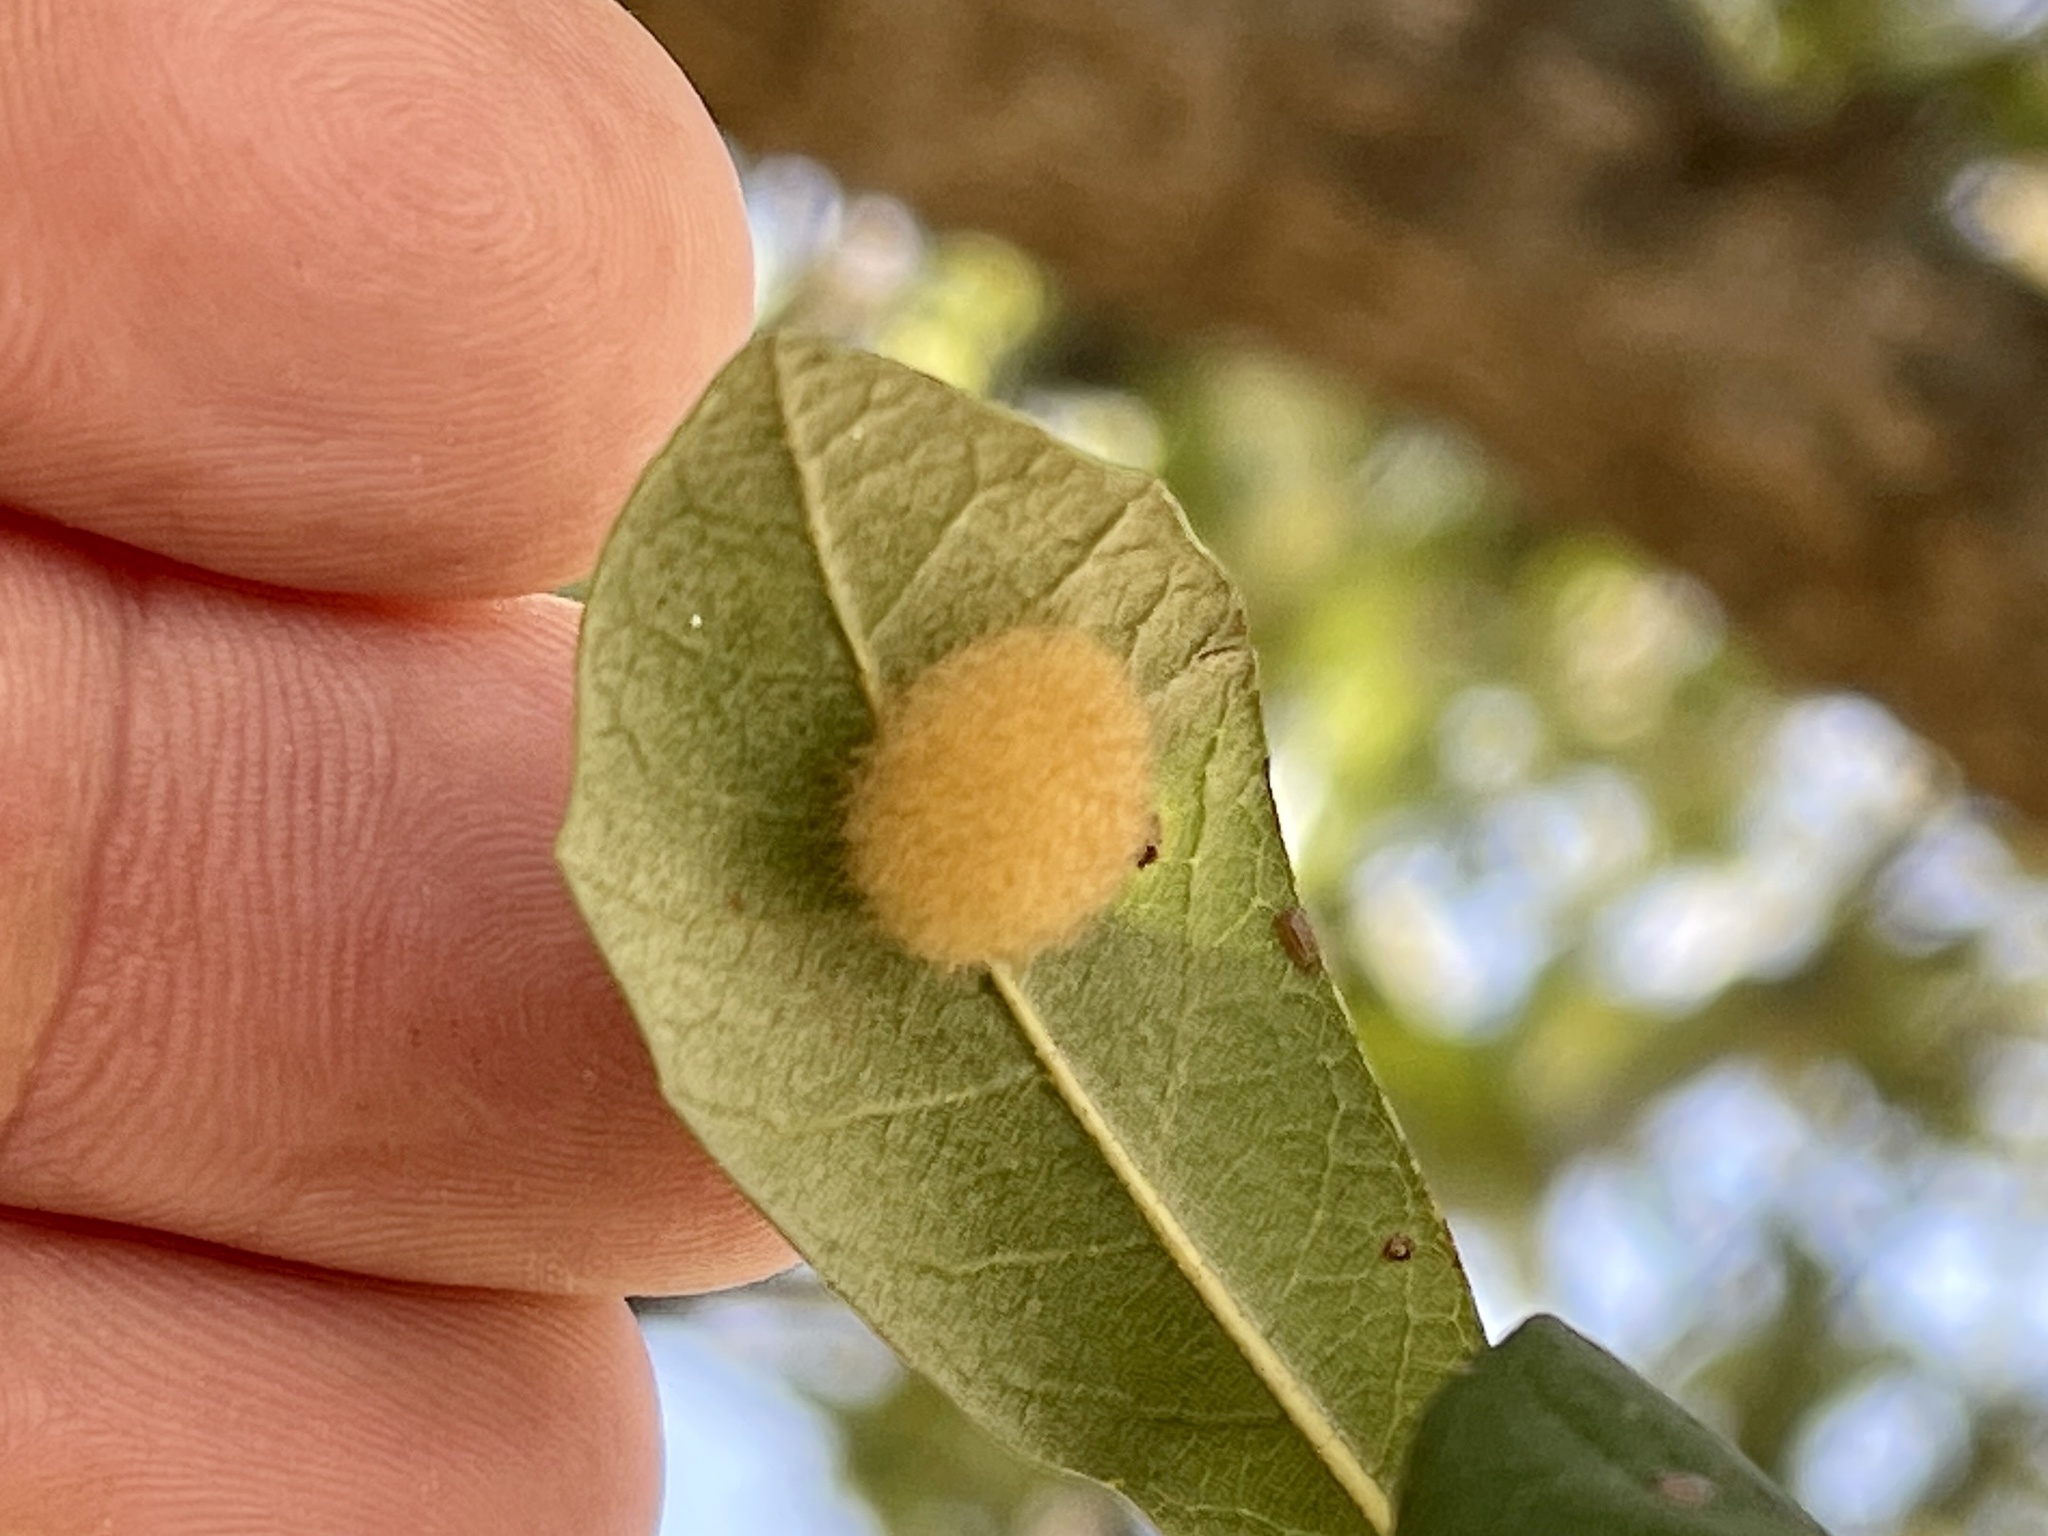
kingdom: Animalia
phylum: Arthropoda
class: Insecta
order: Hymenoptera
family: Cynipidae
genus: Andricus
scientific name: Andricus Druon quercuslanigerum
